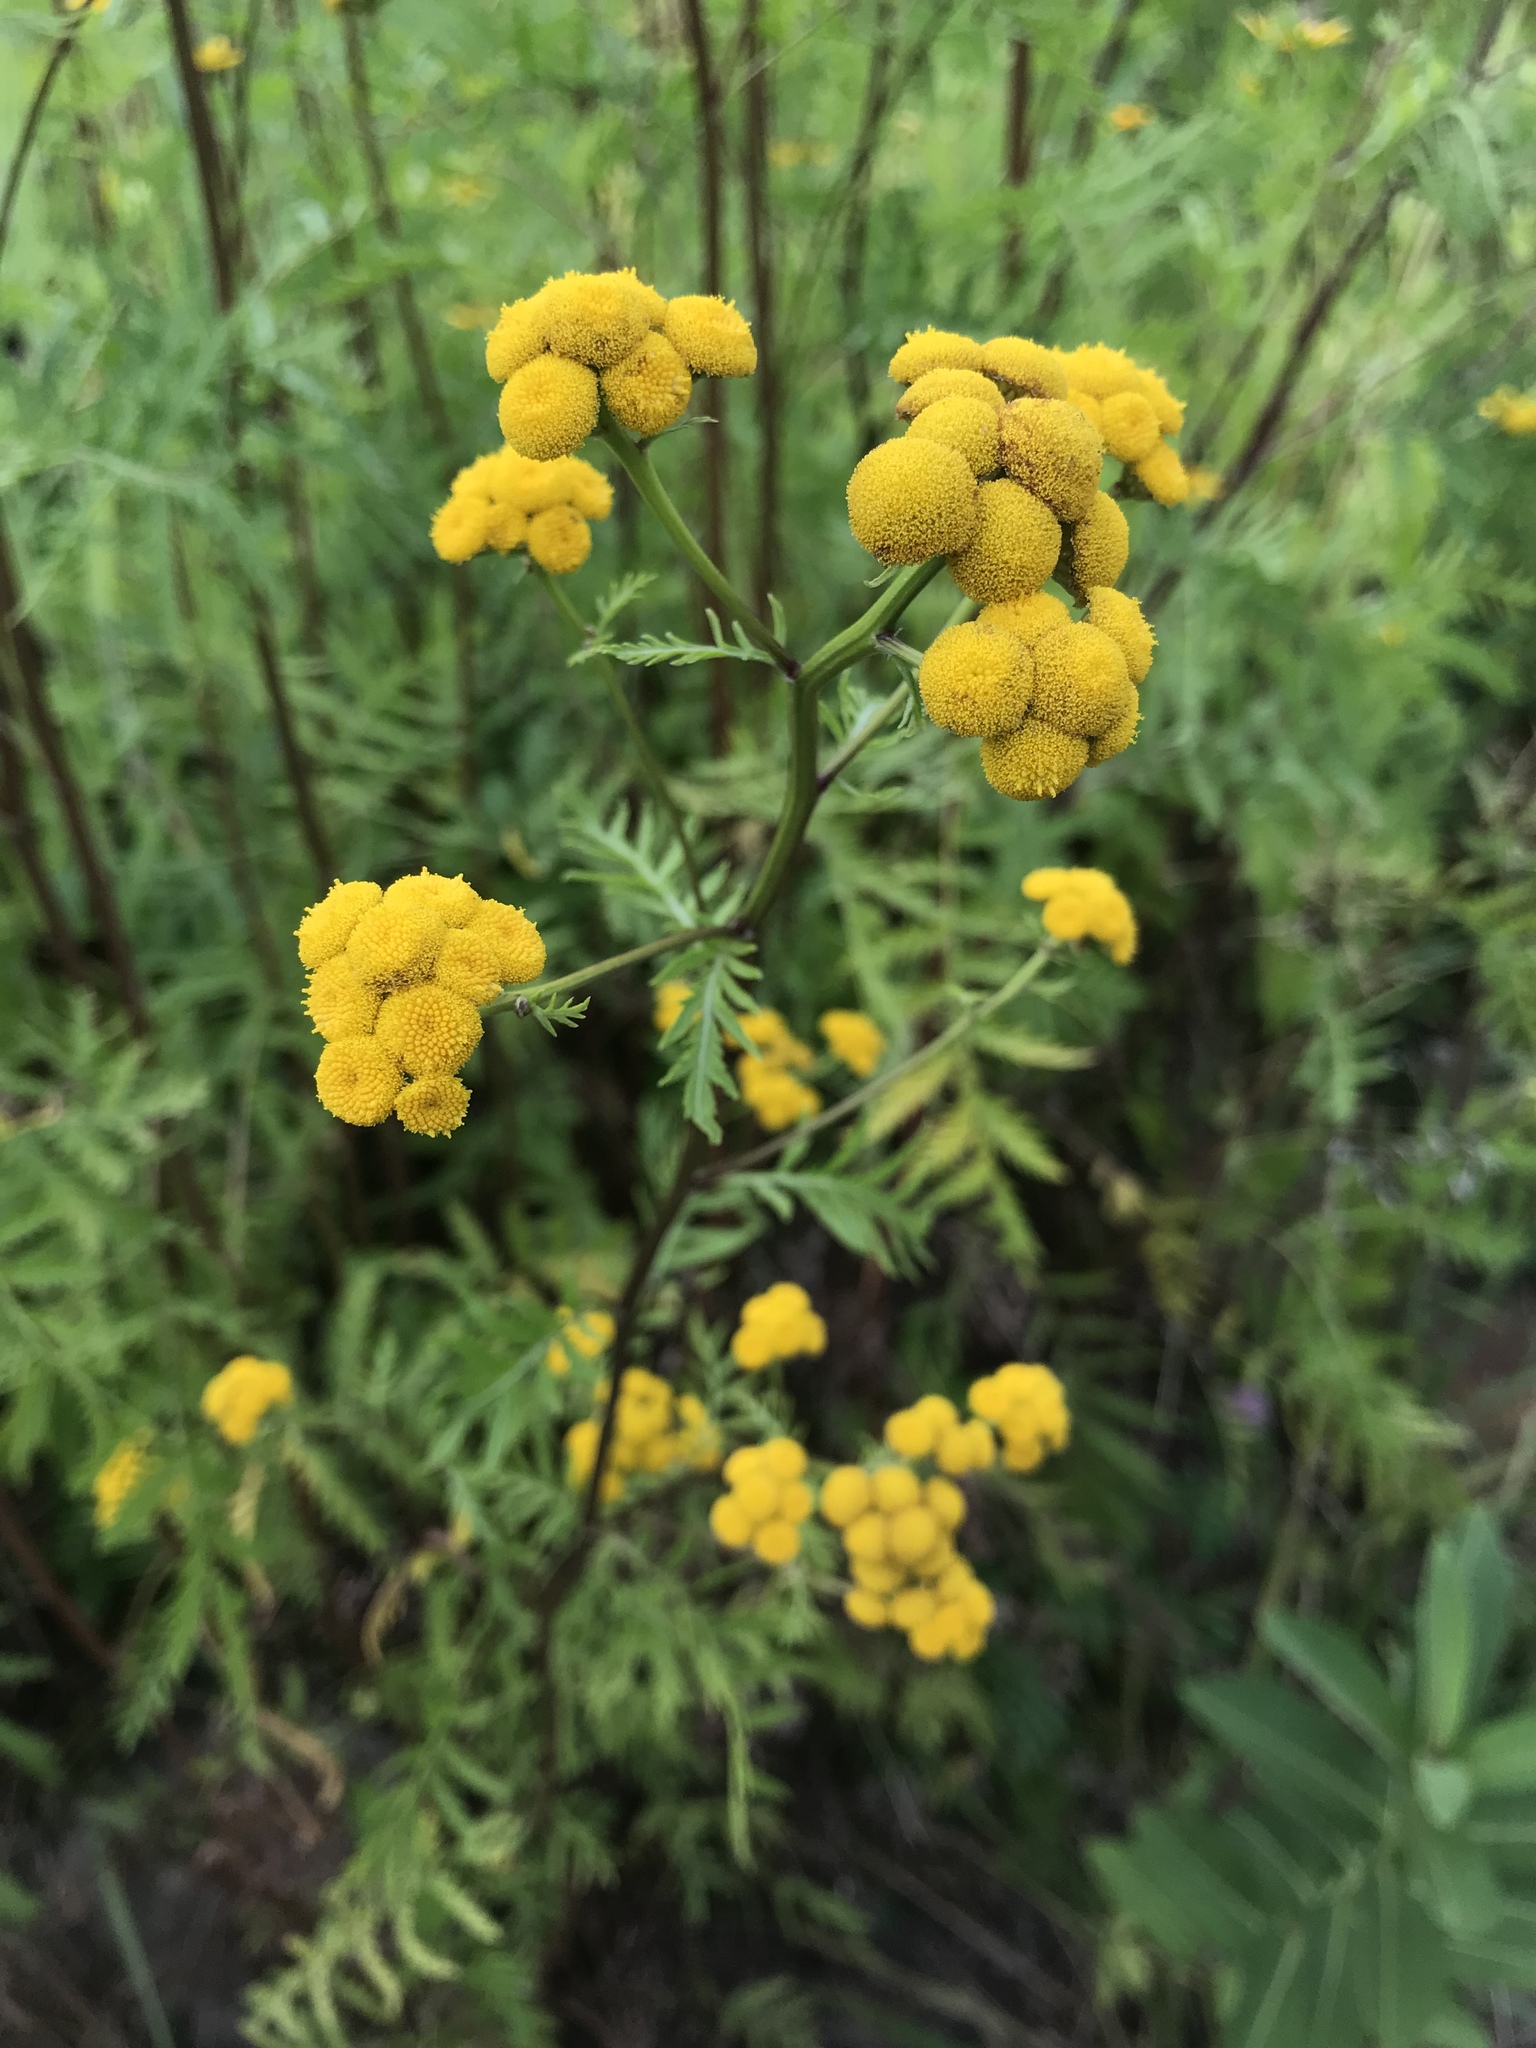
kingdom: Plantae
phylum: Tracheophyta
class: Magnoliopsida
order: Asterales
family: Asteraceae
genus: Tanacetum
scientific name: Tanacetum vulgare
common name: Common tansy
